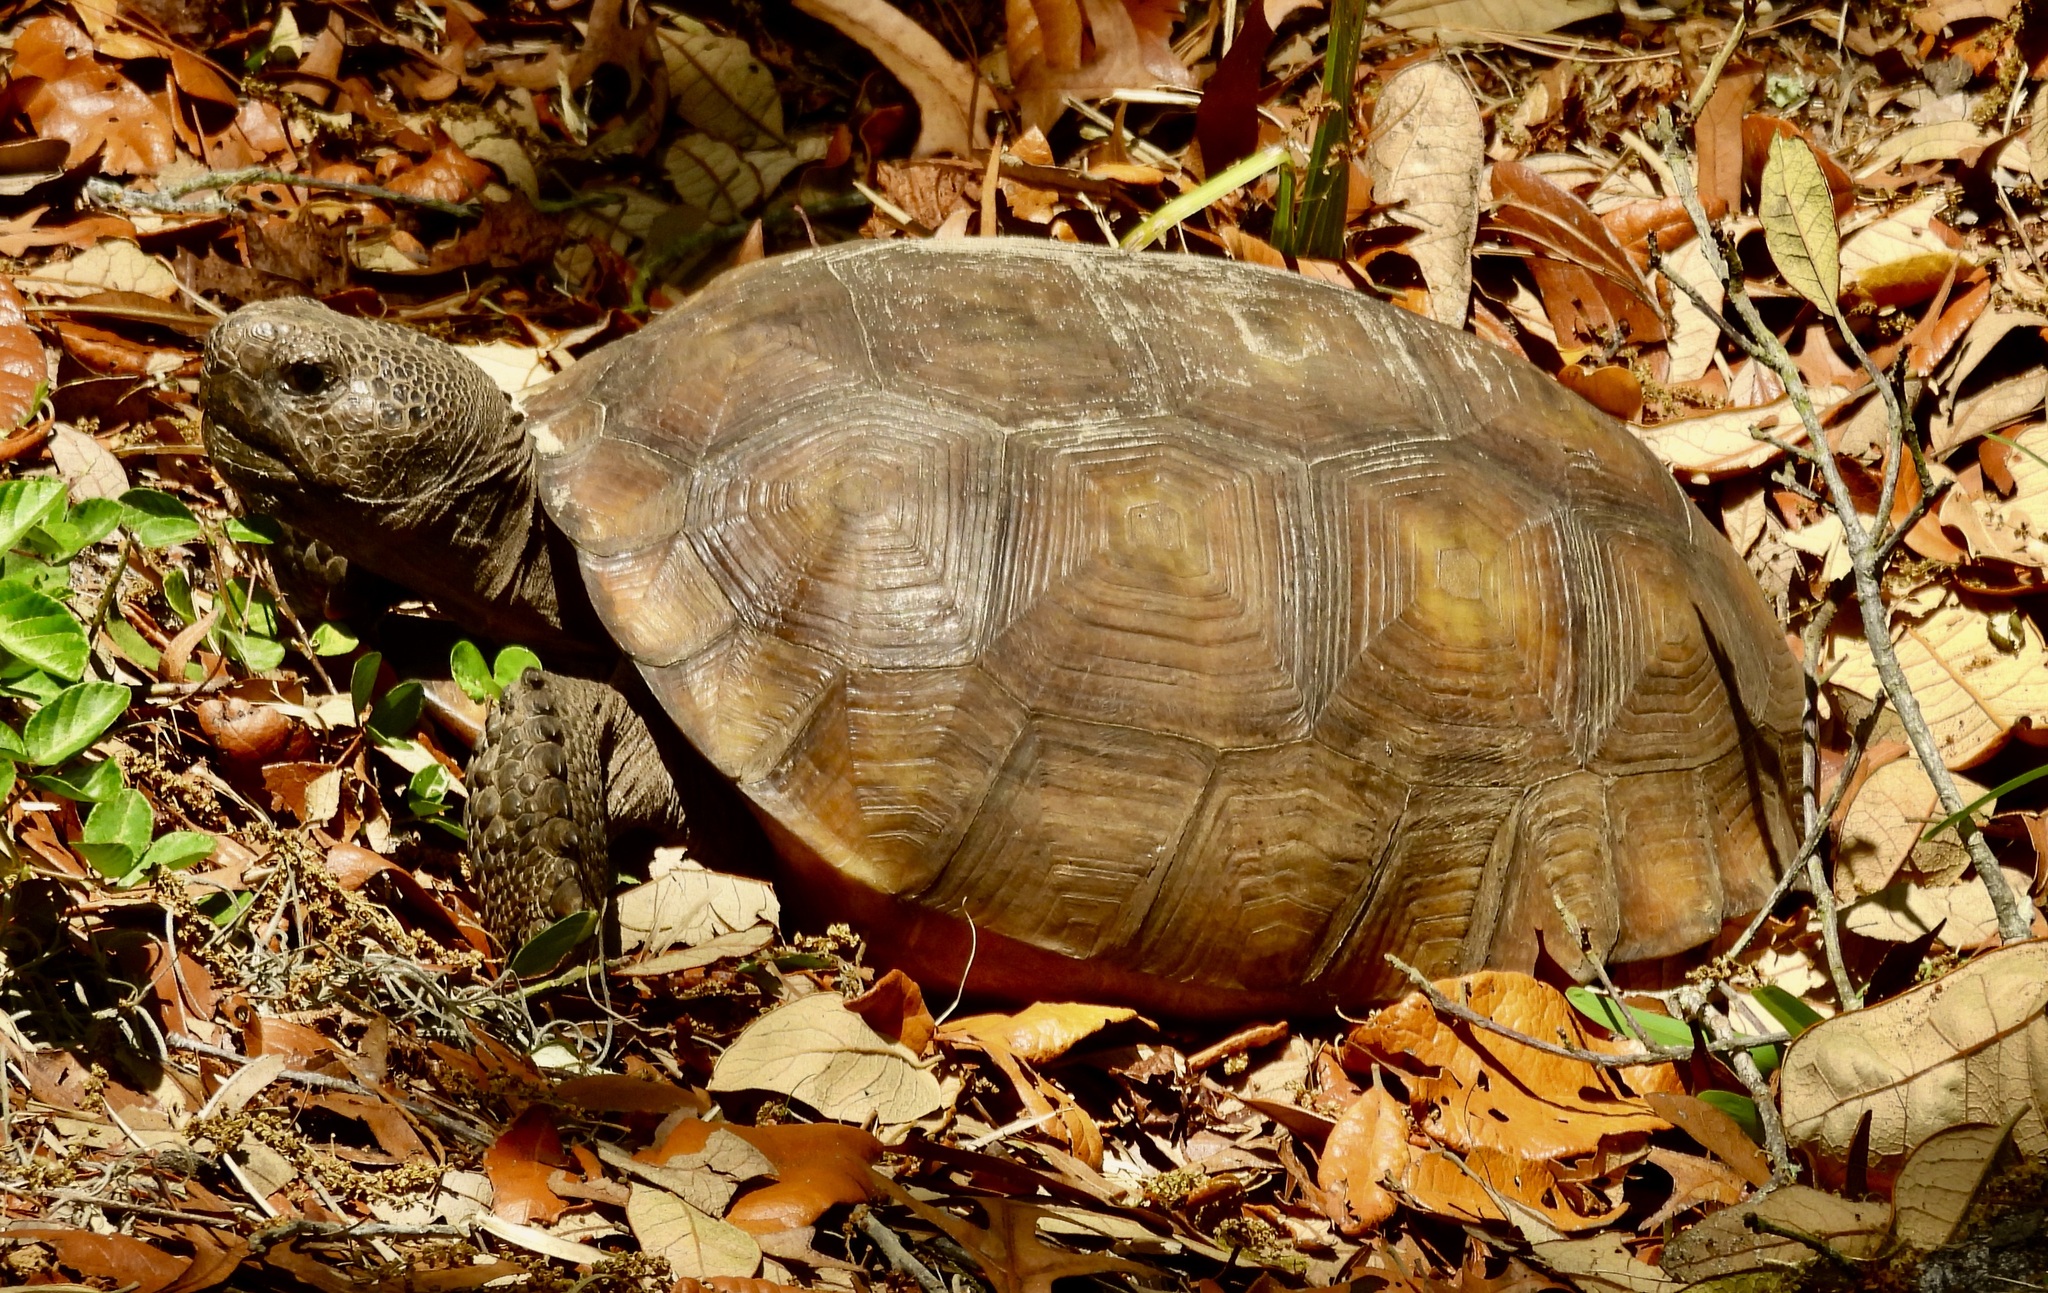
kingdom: Animalia
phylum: Chordata
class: Testudines
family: Testudinidae
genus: Gopherus
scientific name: Gopherus polyphemus
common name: Florida gopher tortoise
